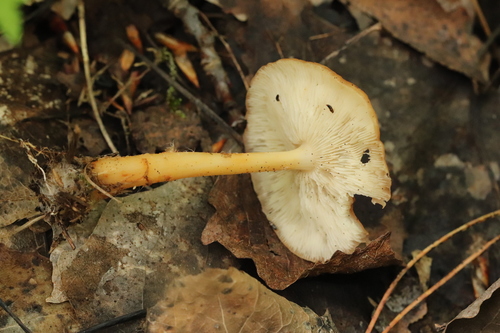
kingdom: Fungi
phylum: Basidiomycota
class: Agaricomycetes
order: Agaricales
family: Omphalotaceae
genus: Gymnopus
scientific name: Gymnopus dryophilus
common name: Penny top
